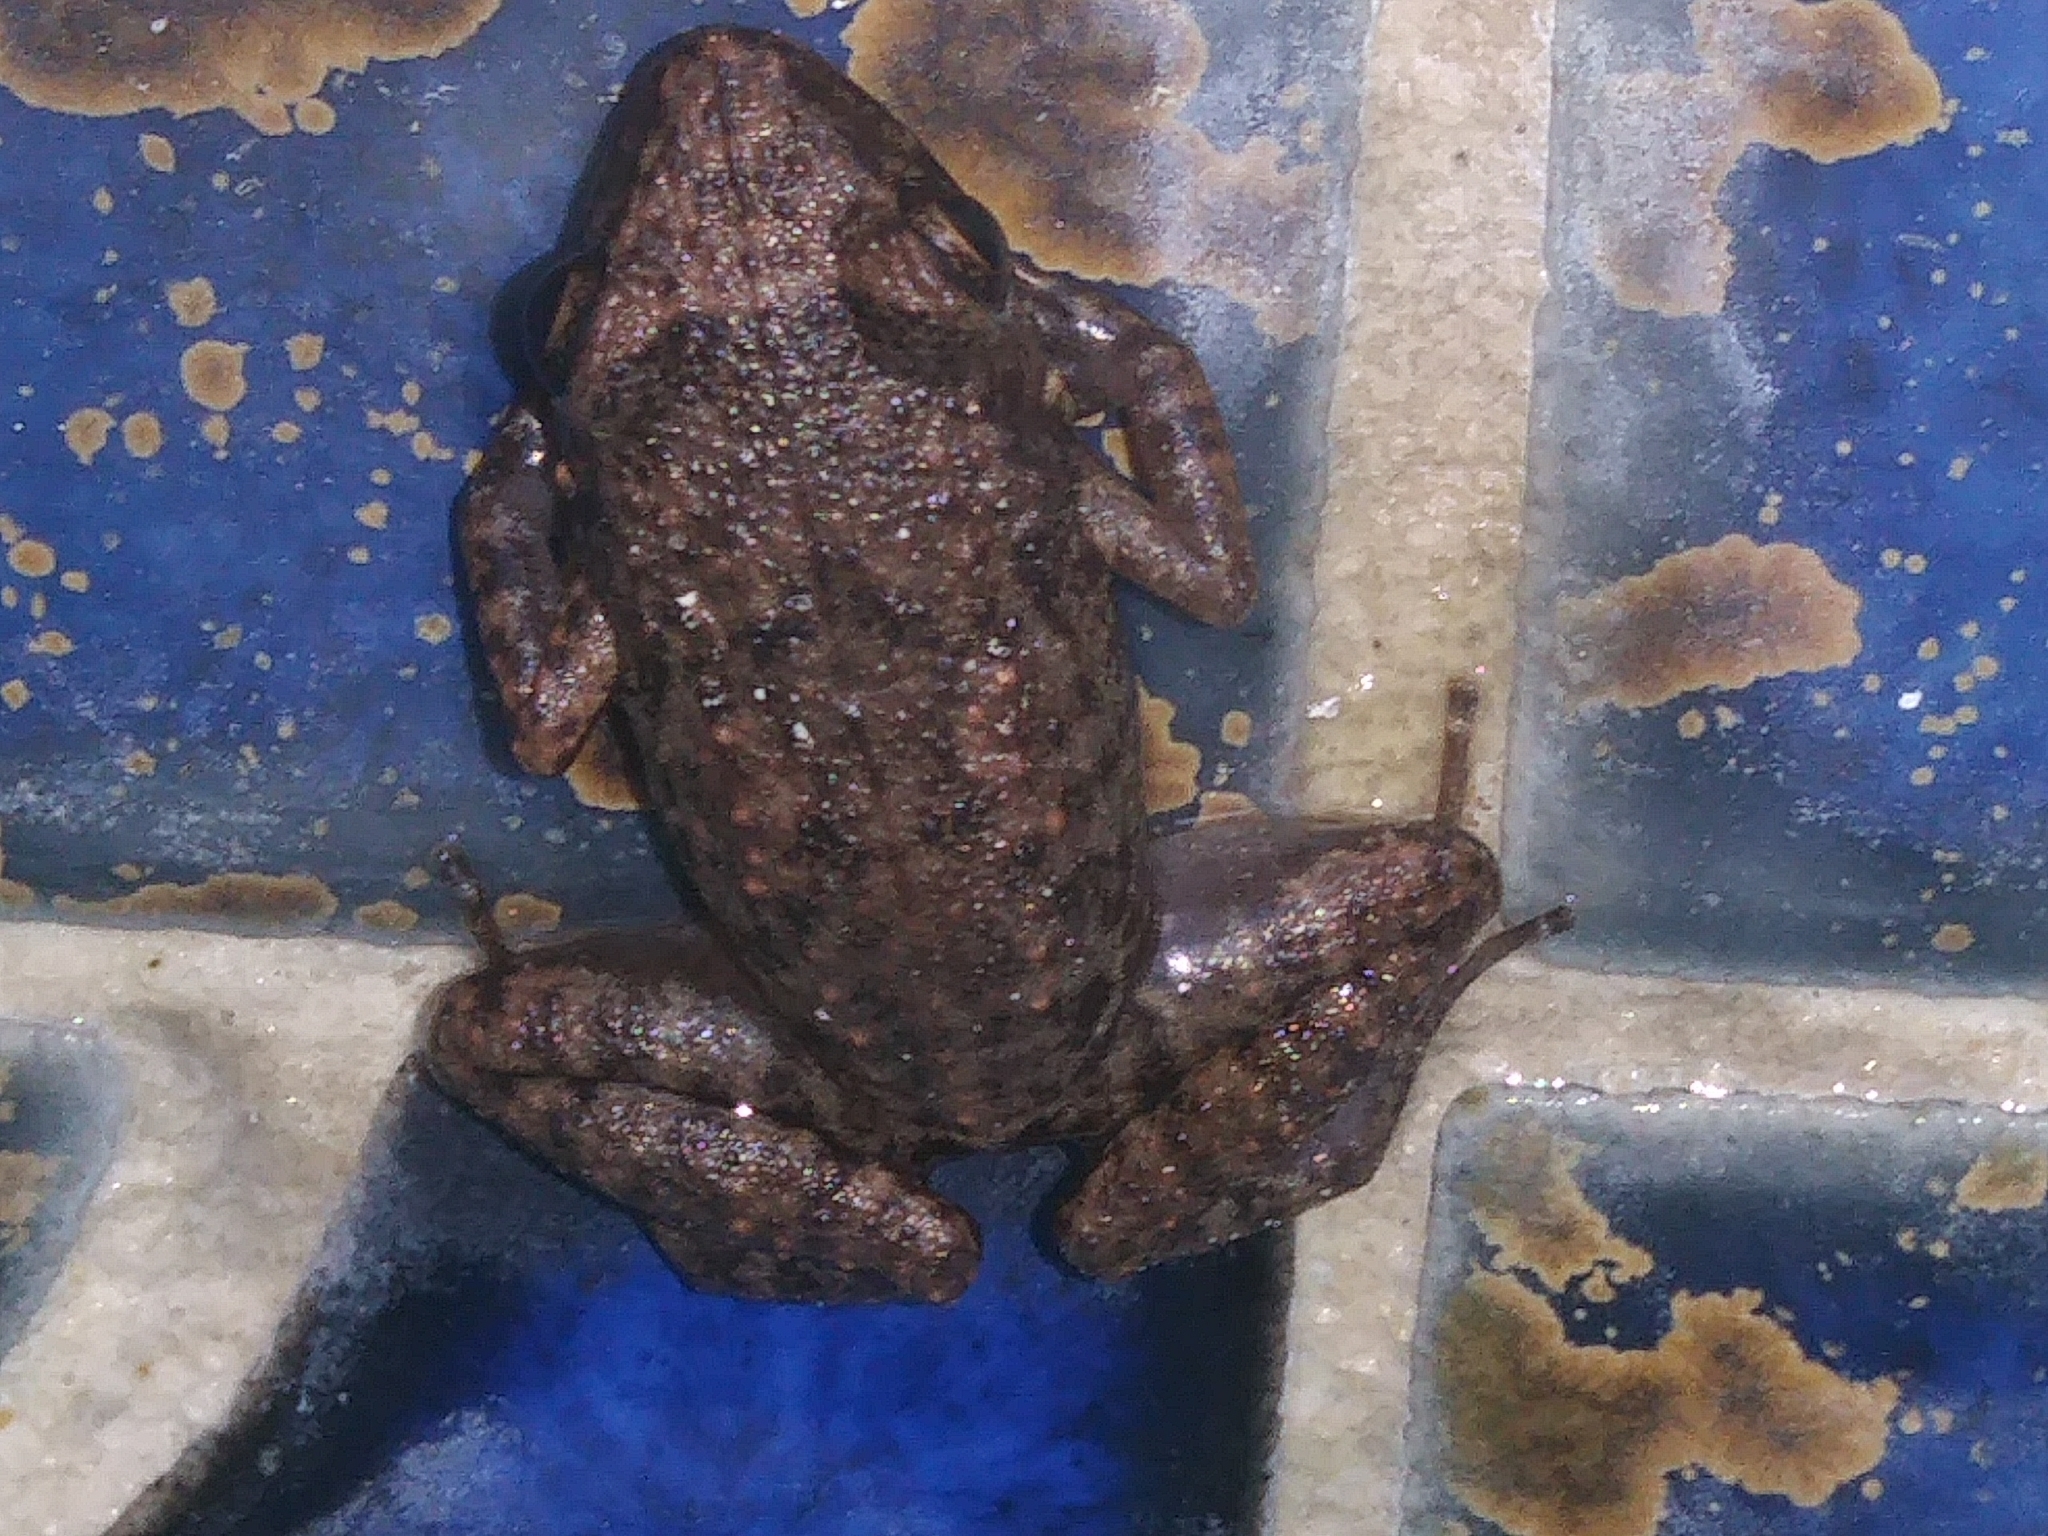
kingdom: Animalia
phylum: Chordata
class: Amphibia
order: Anura
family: Eleutherodactylidae
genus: Eleutherodactylus
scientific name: Eleutherodactylus planirostris
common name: Greenhouse frog
